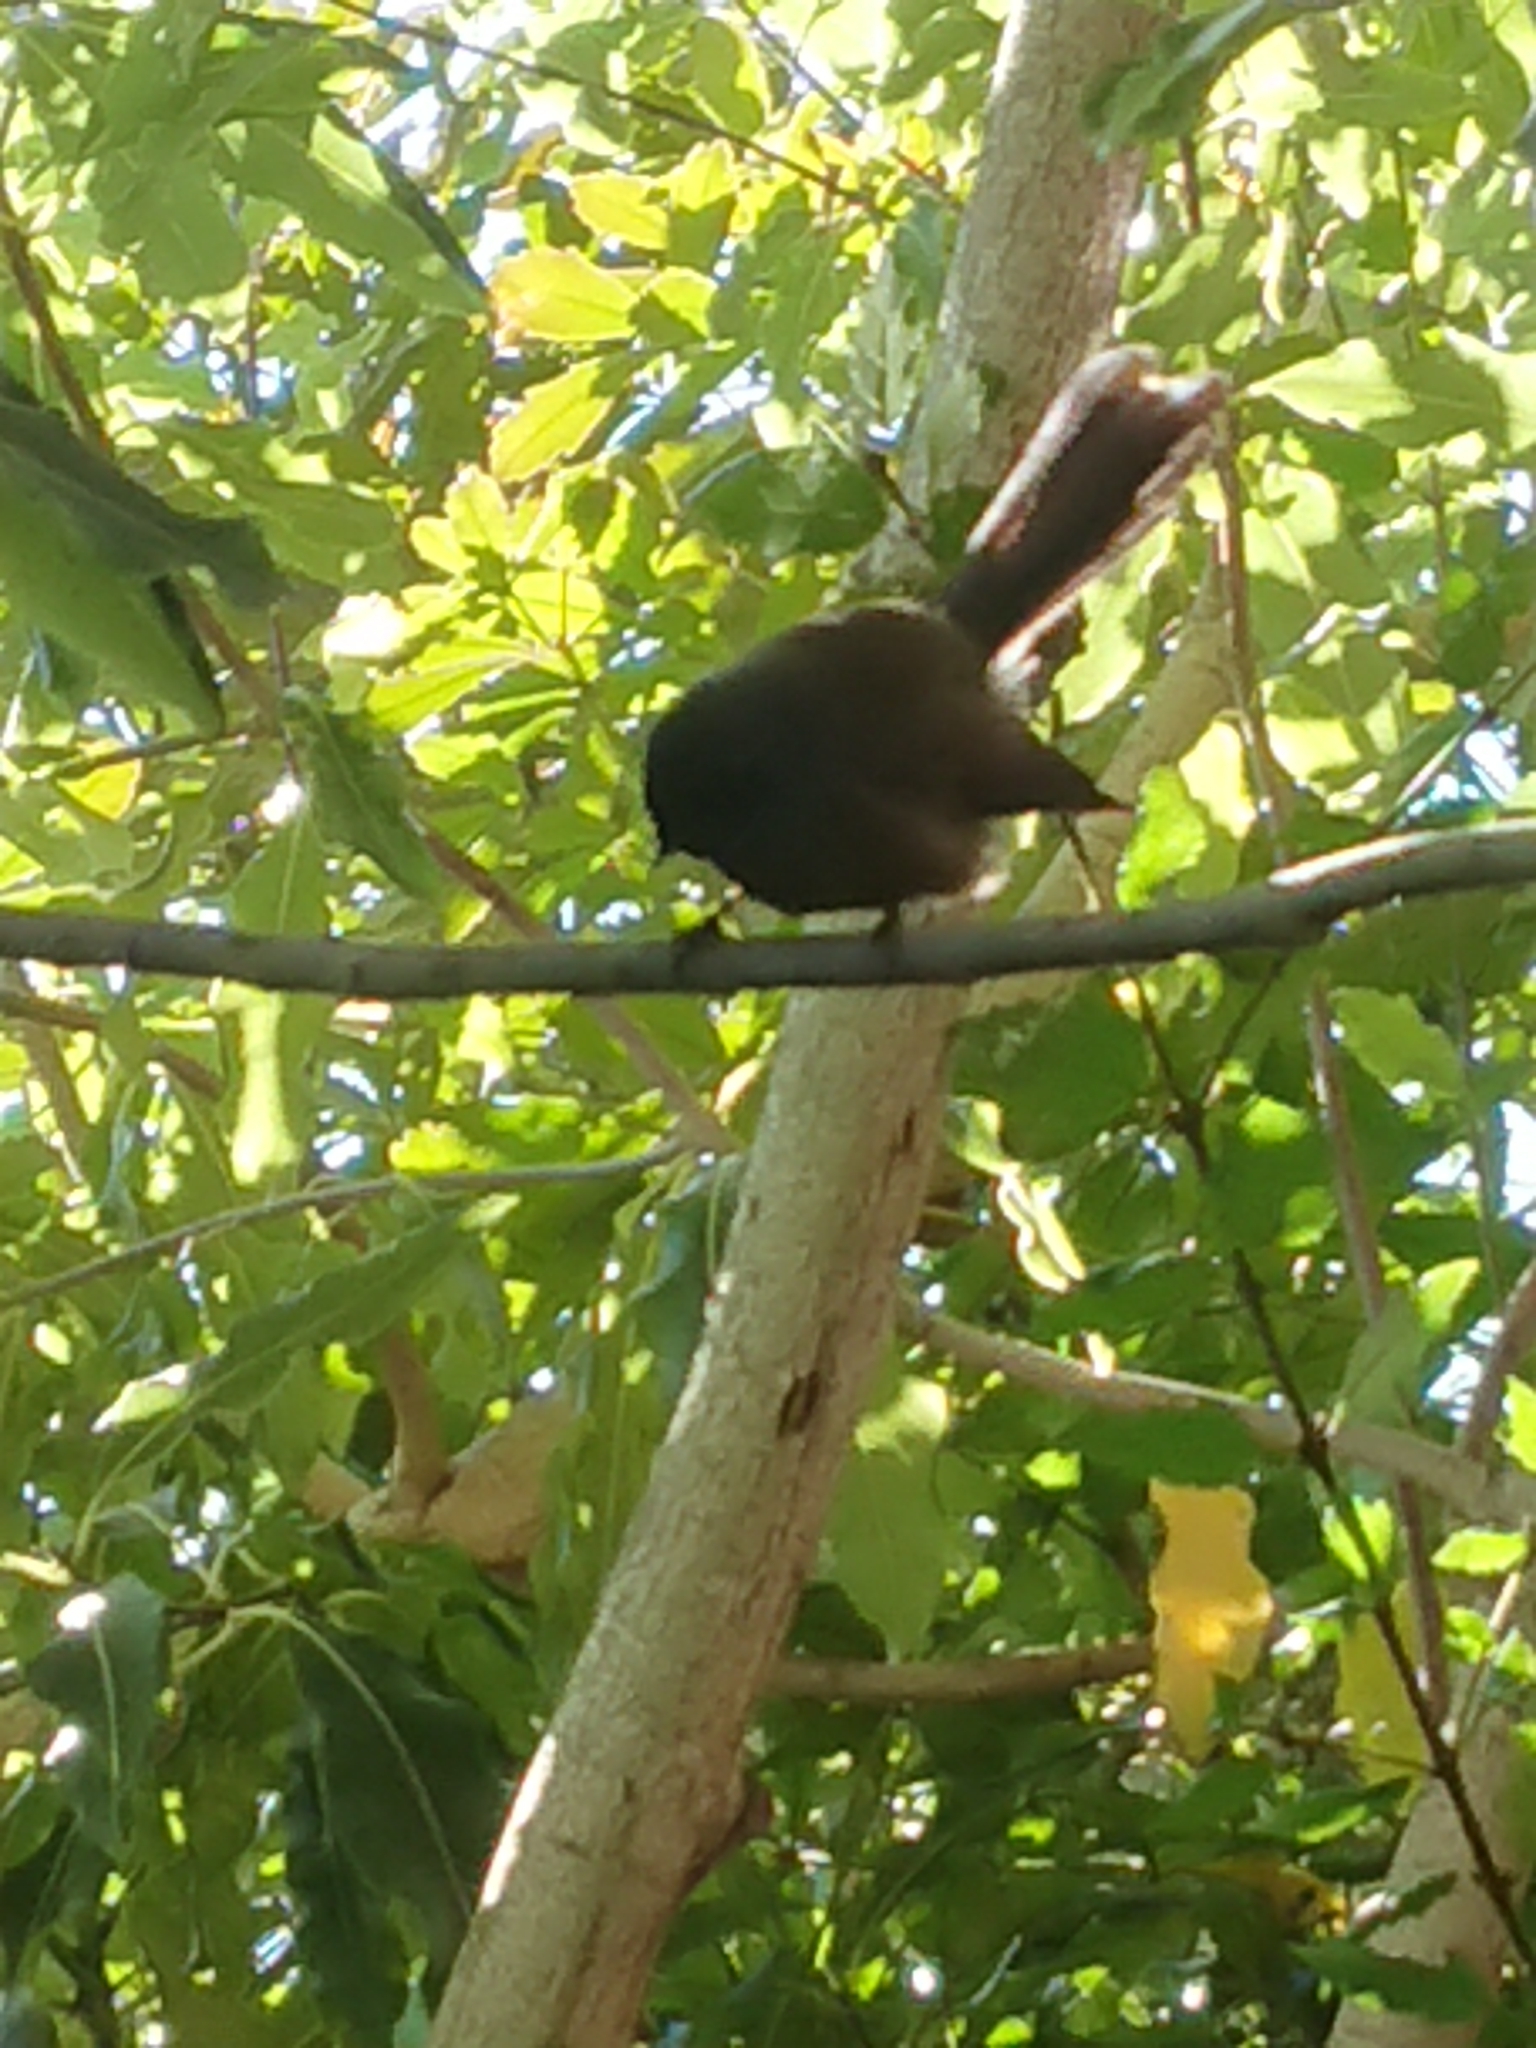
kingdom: Animalia
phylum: Chordata
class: Aves
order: Passeriformes
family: Rhipiduridae
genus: Rhipidura
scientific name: Rhipidura fuliginosa
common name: New zealand fantail
